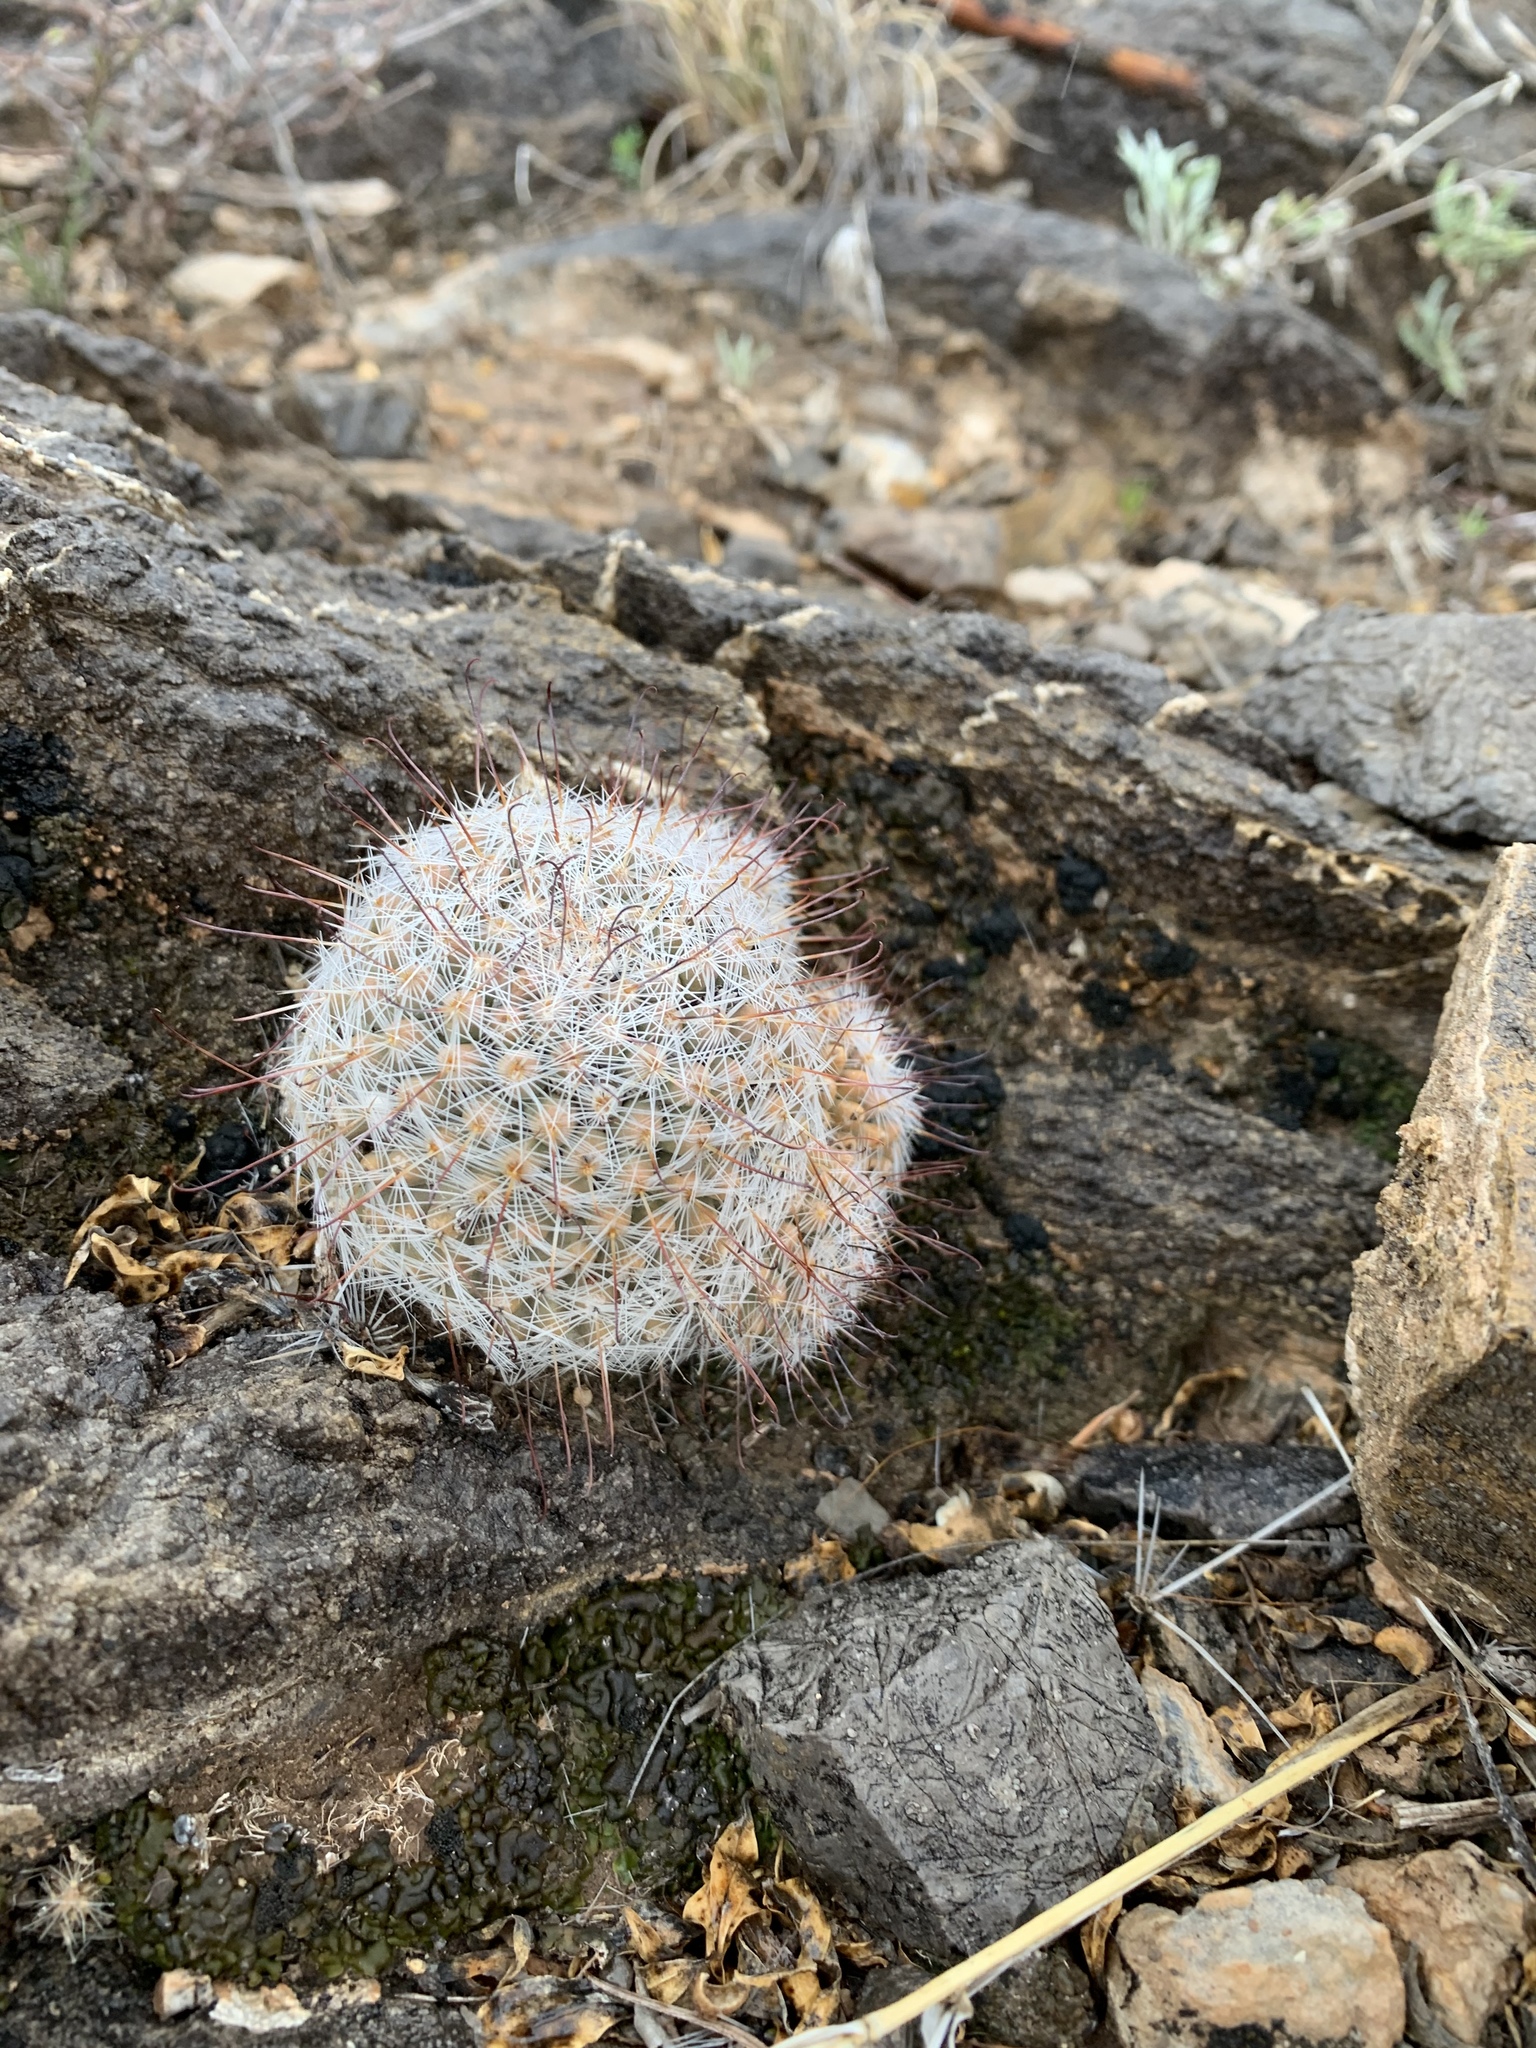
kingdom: Plantae
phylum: Tracheophyta
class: Magnoliopsida
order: Caryophyllales
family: Cactaceae
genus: Cochemiea
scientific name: Cochemiea grahamii
